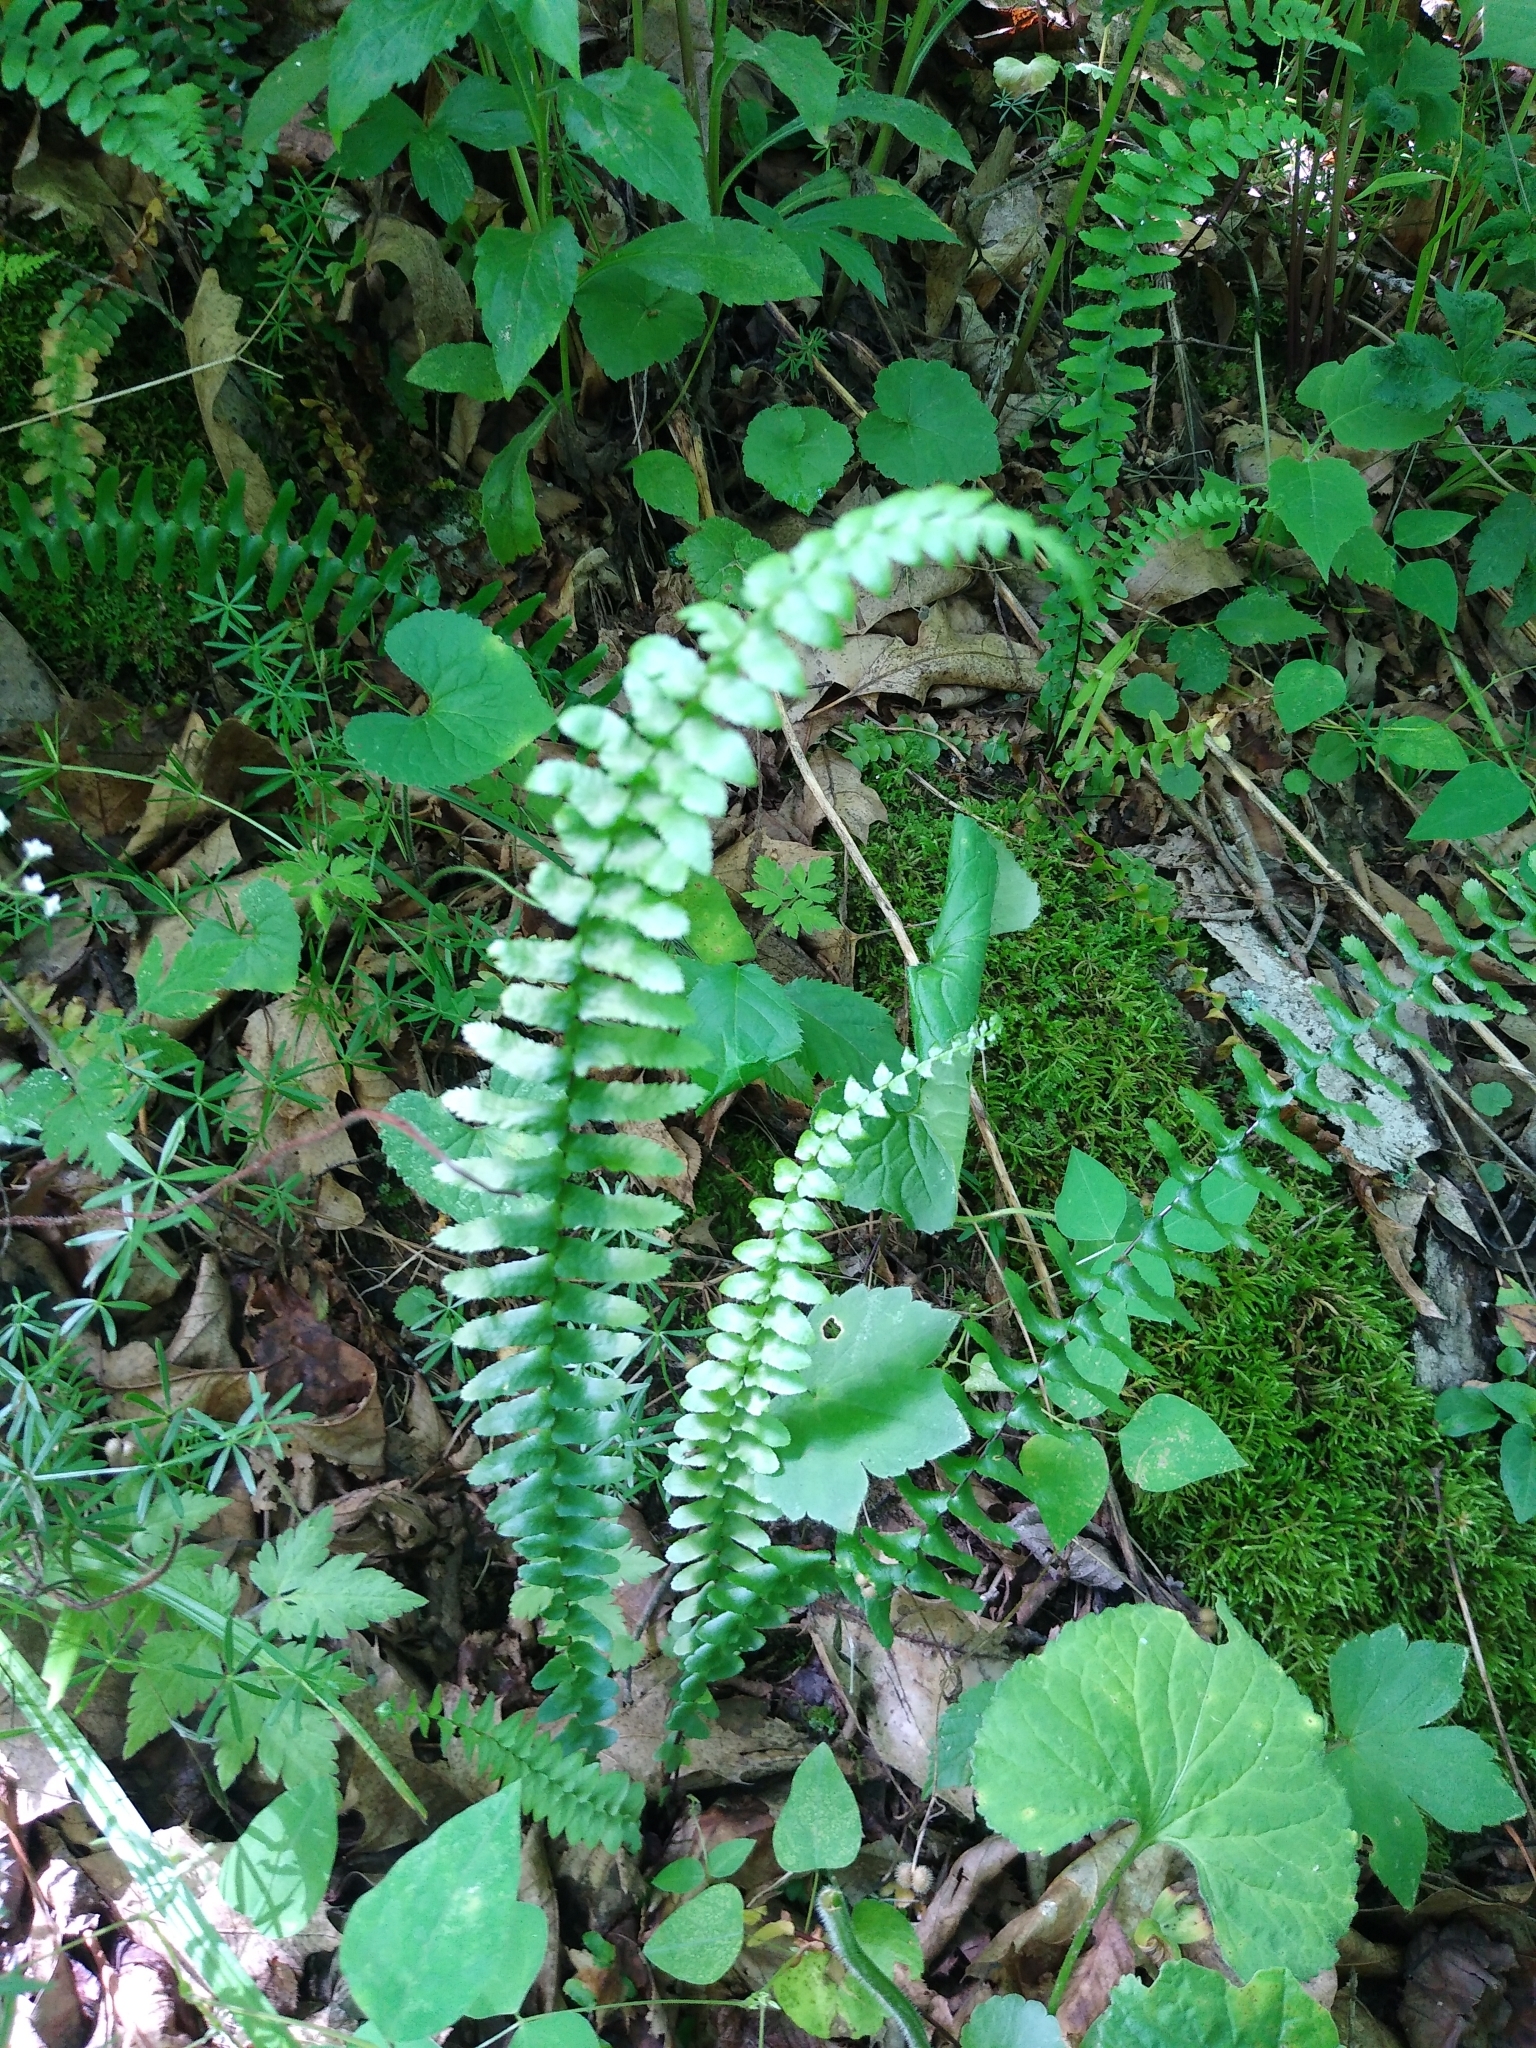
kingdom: Plantae
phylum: Tracheophyta
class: Polypodiopsida
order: Polypodiales
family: Aspleniaceae
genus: Asplenium
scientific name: Asplenium platyneuron
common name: Ebony spleenwort
